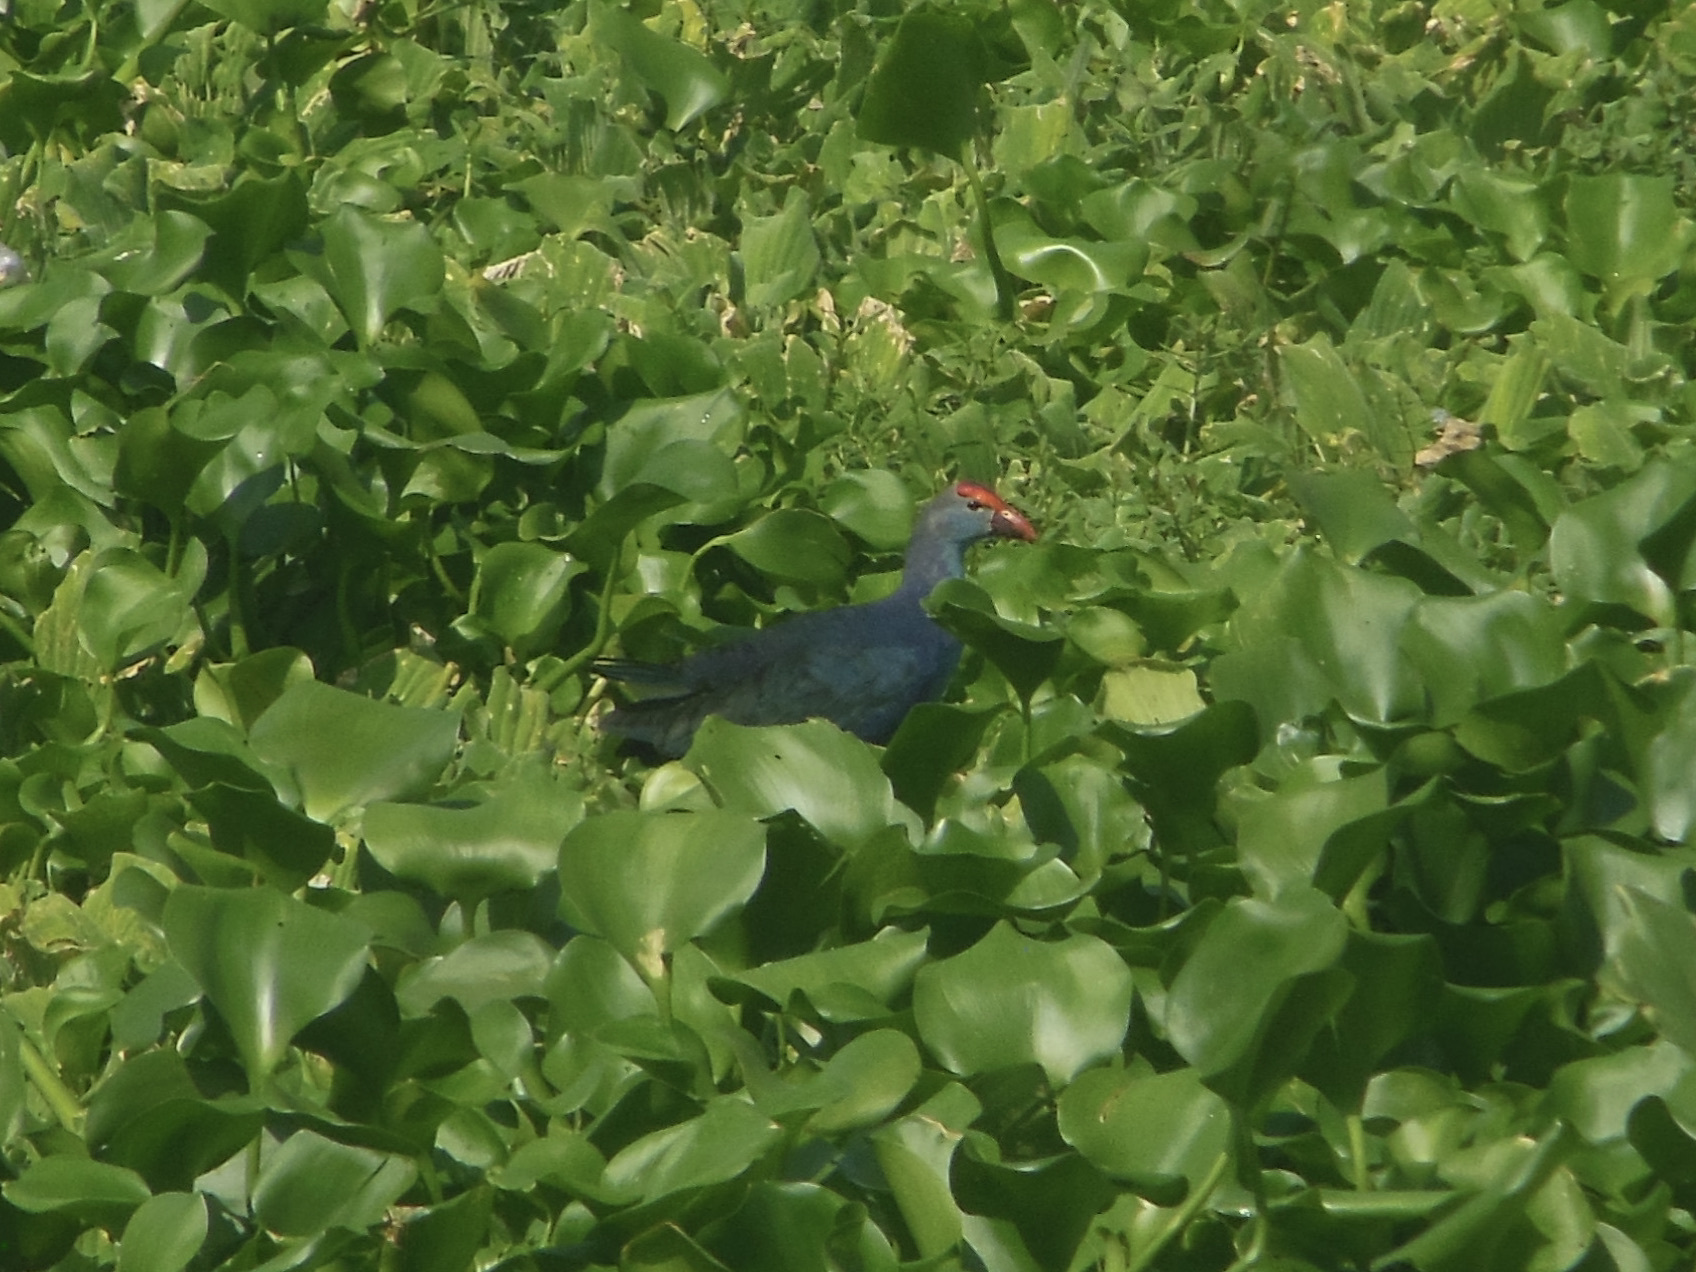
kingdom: Animalia
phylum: Chordata
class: Aves
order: Gruiformes
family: Rallidae
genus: Porphyrio
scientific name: Porphyrio porphyrio
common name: Purple swamphen
